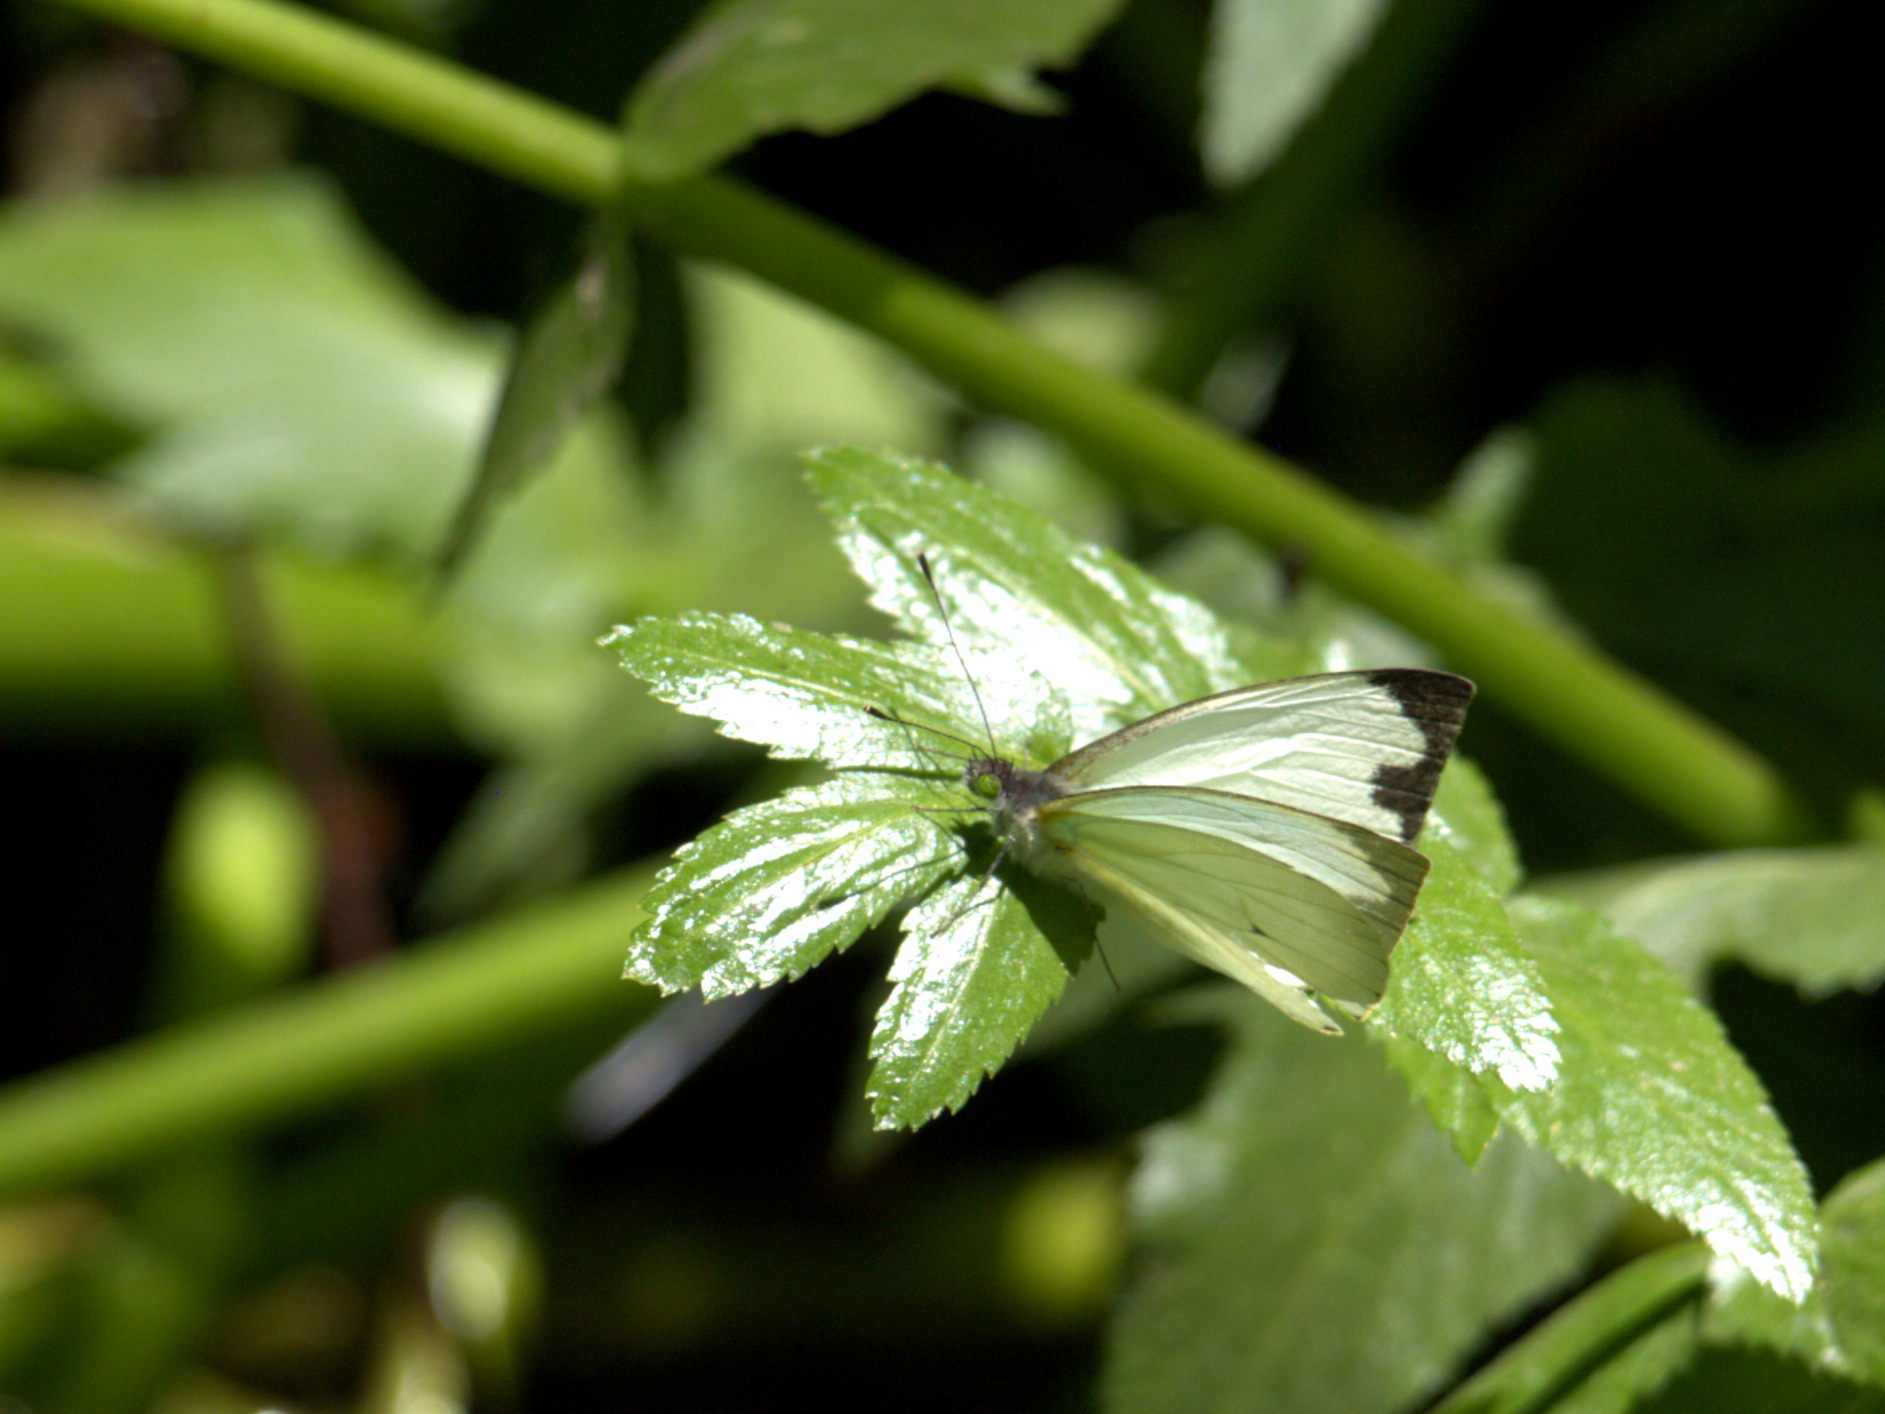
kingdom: Animalia
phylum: Arthropoda
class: Insecta
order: Lepidoptera
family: Pieridae
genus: Leptophobia
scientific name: Leptophobia aripa
